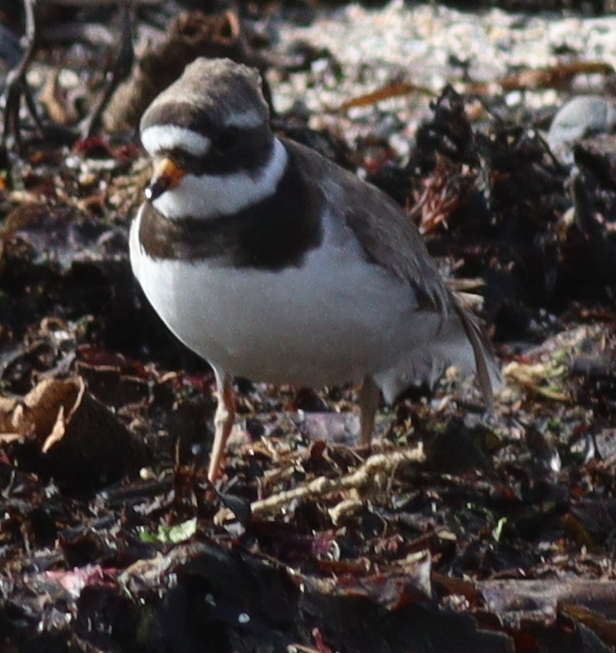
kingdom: Animalia
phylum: Chordata
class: Aves
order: Charadriiformes
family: Charadriidae
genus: Charadrius
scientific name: Charadrius hiaticula
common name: Common ringed plover
